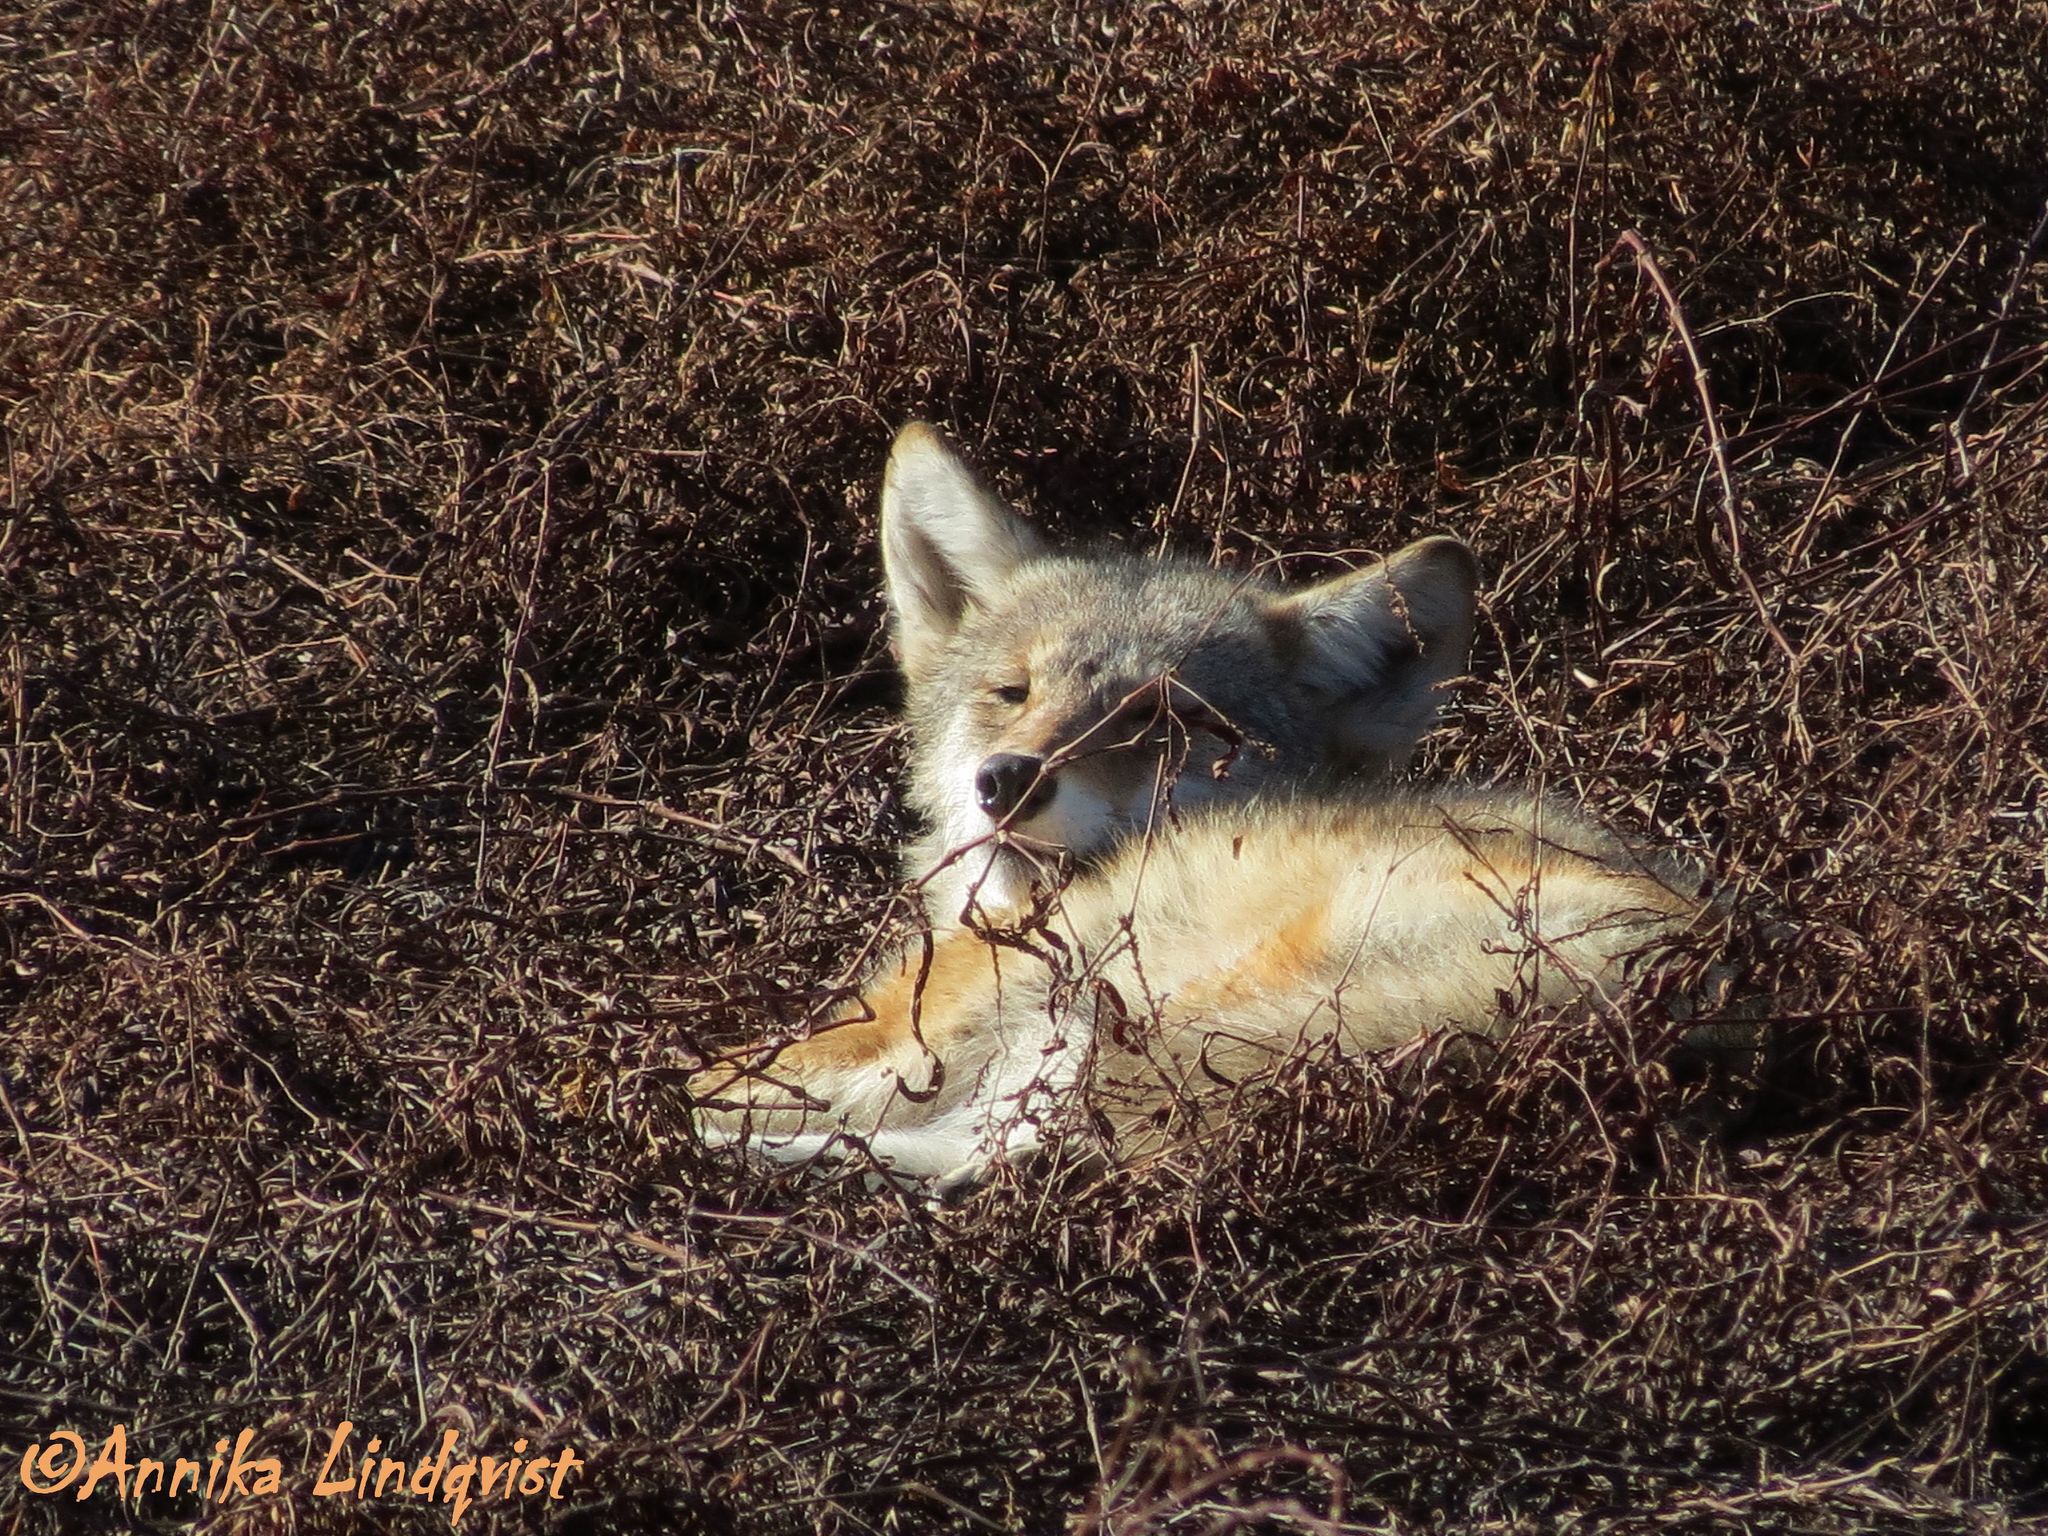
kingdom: Animalia
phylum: Chordata
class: Mammalia
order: Carnivora
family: Canidae
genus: Canis
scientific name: Canis latrans
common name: Coyote
